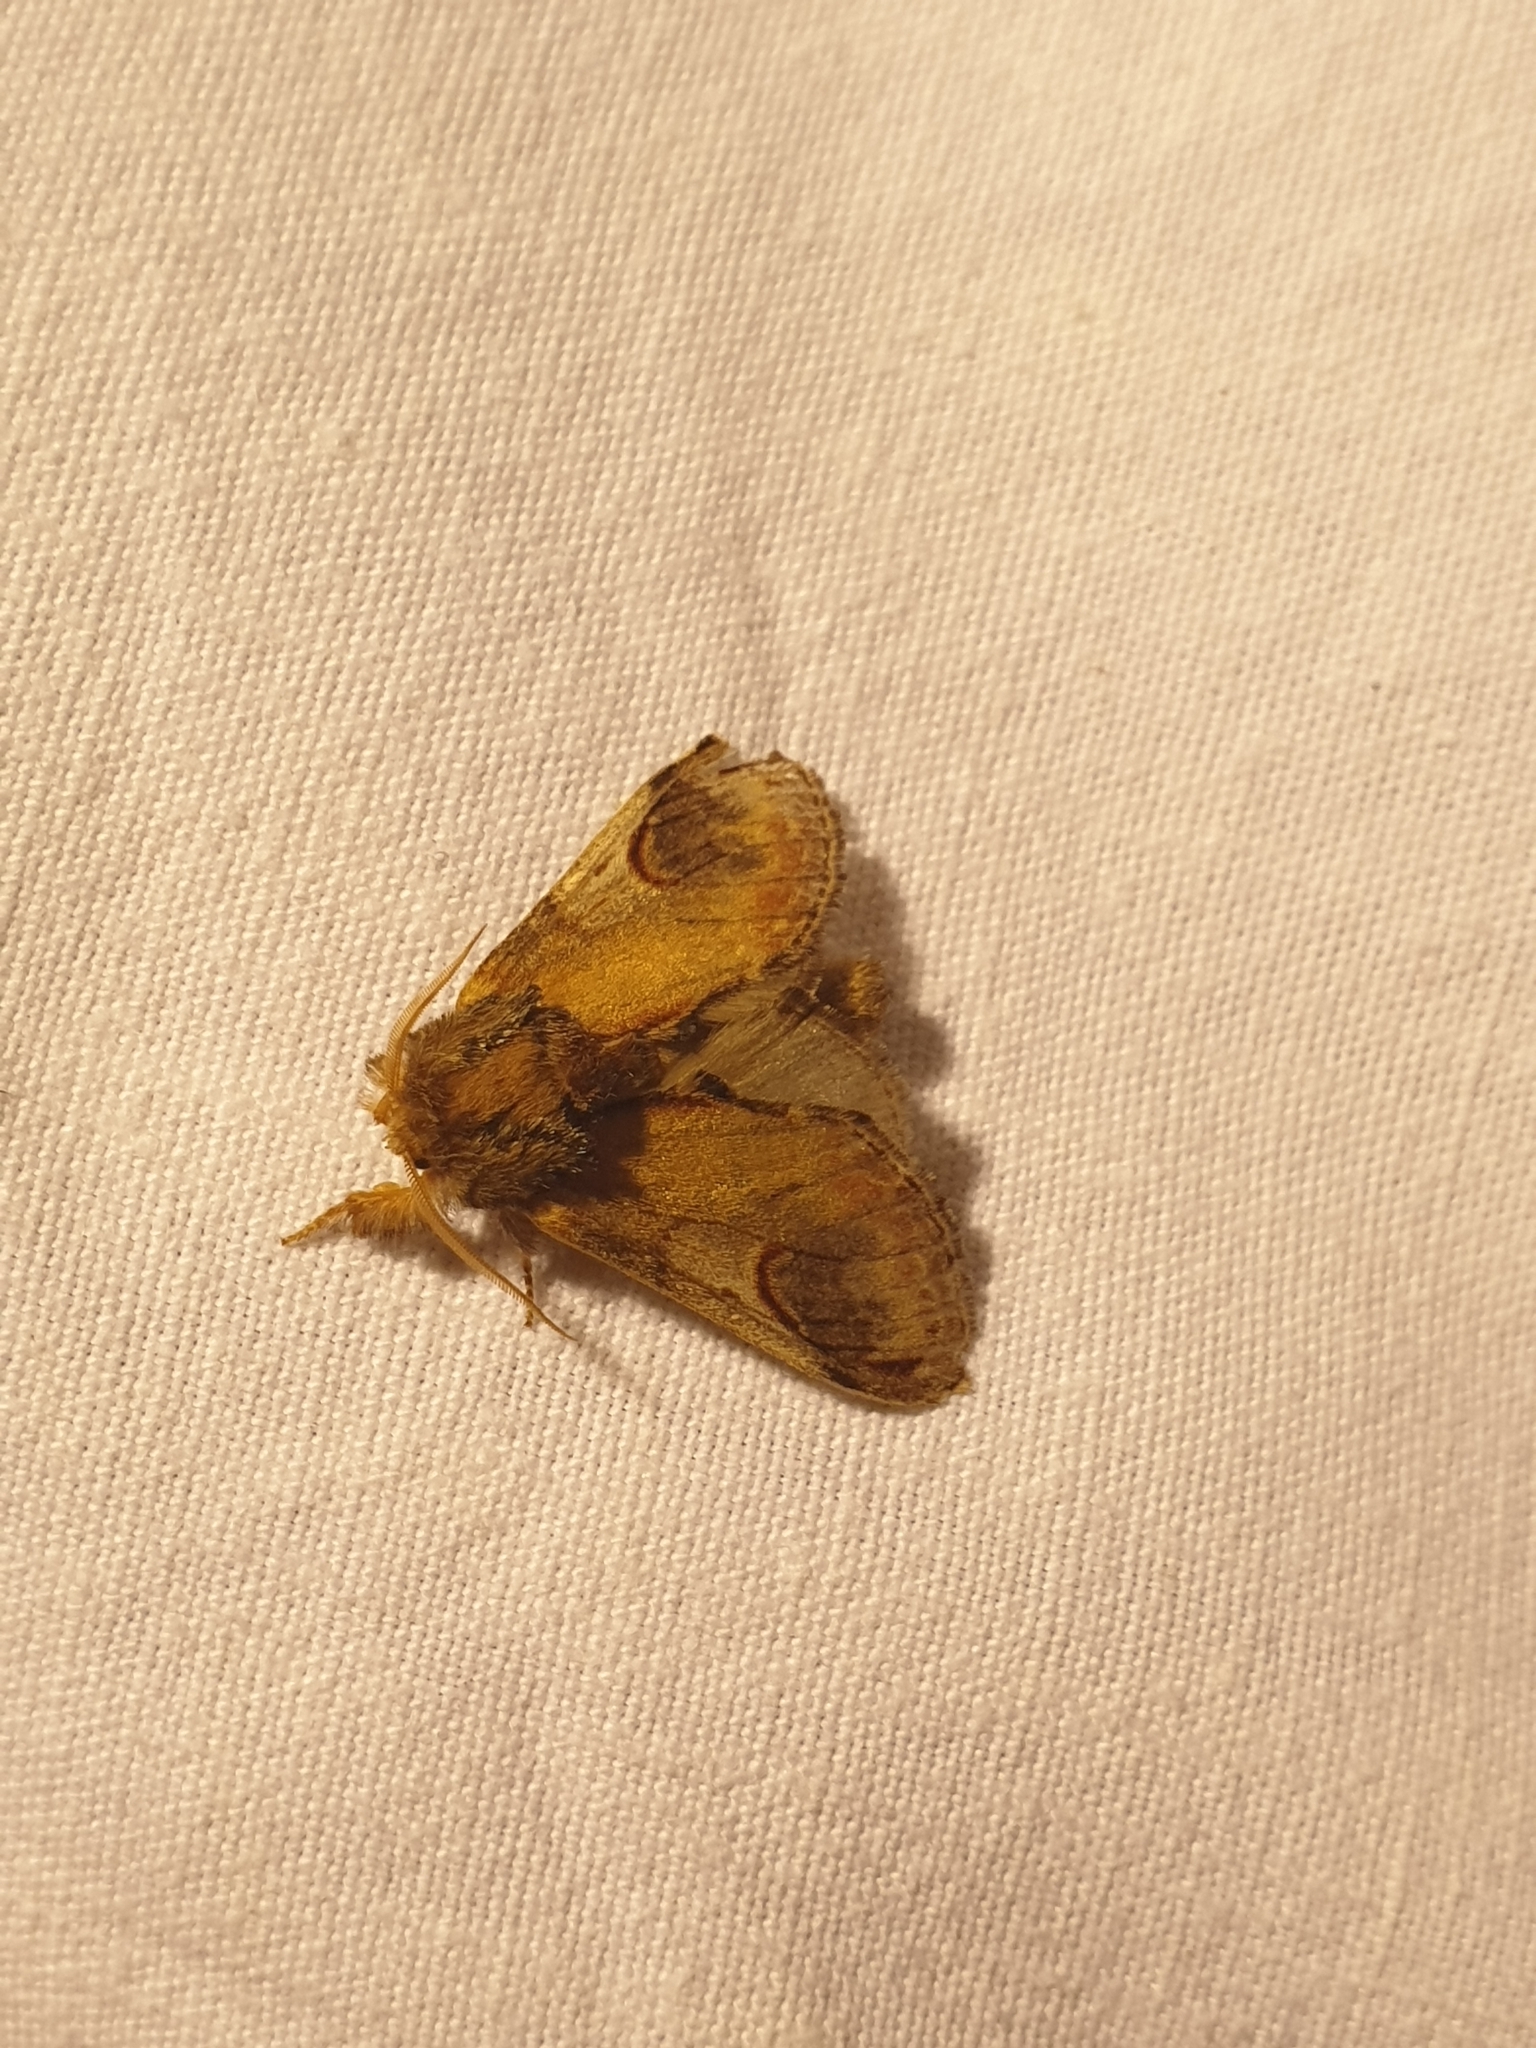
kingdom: Animalia
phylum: Arthropoda
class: Insecta
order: Lepidoptera
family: Notodontidae
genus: Notodonta
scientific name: Notodonta ziczac
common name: Pebble prominent
